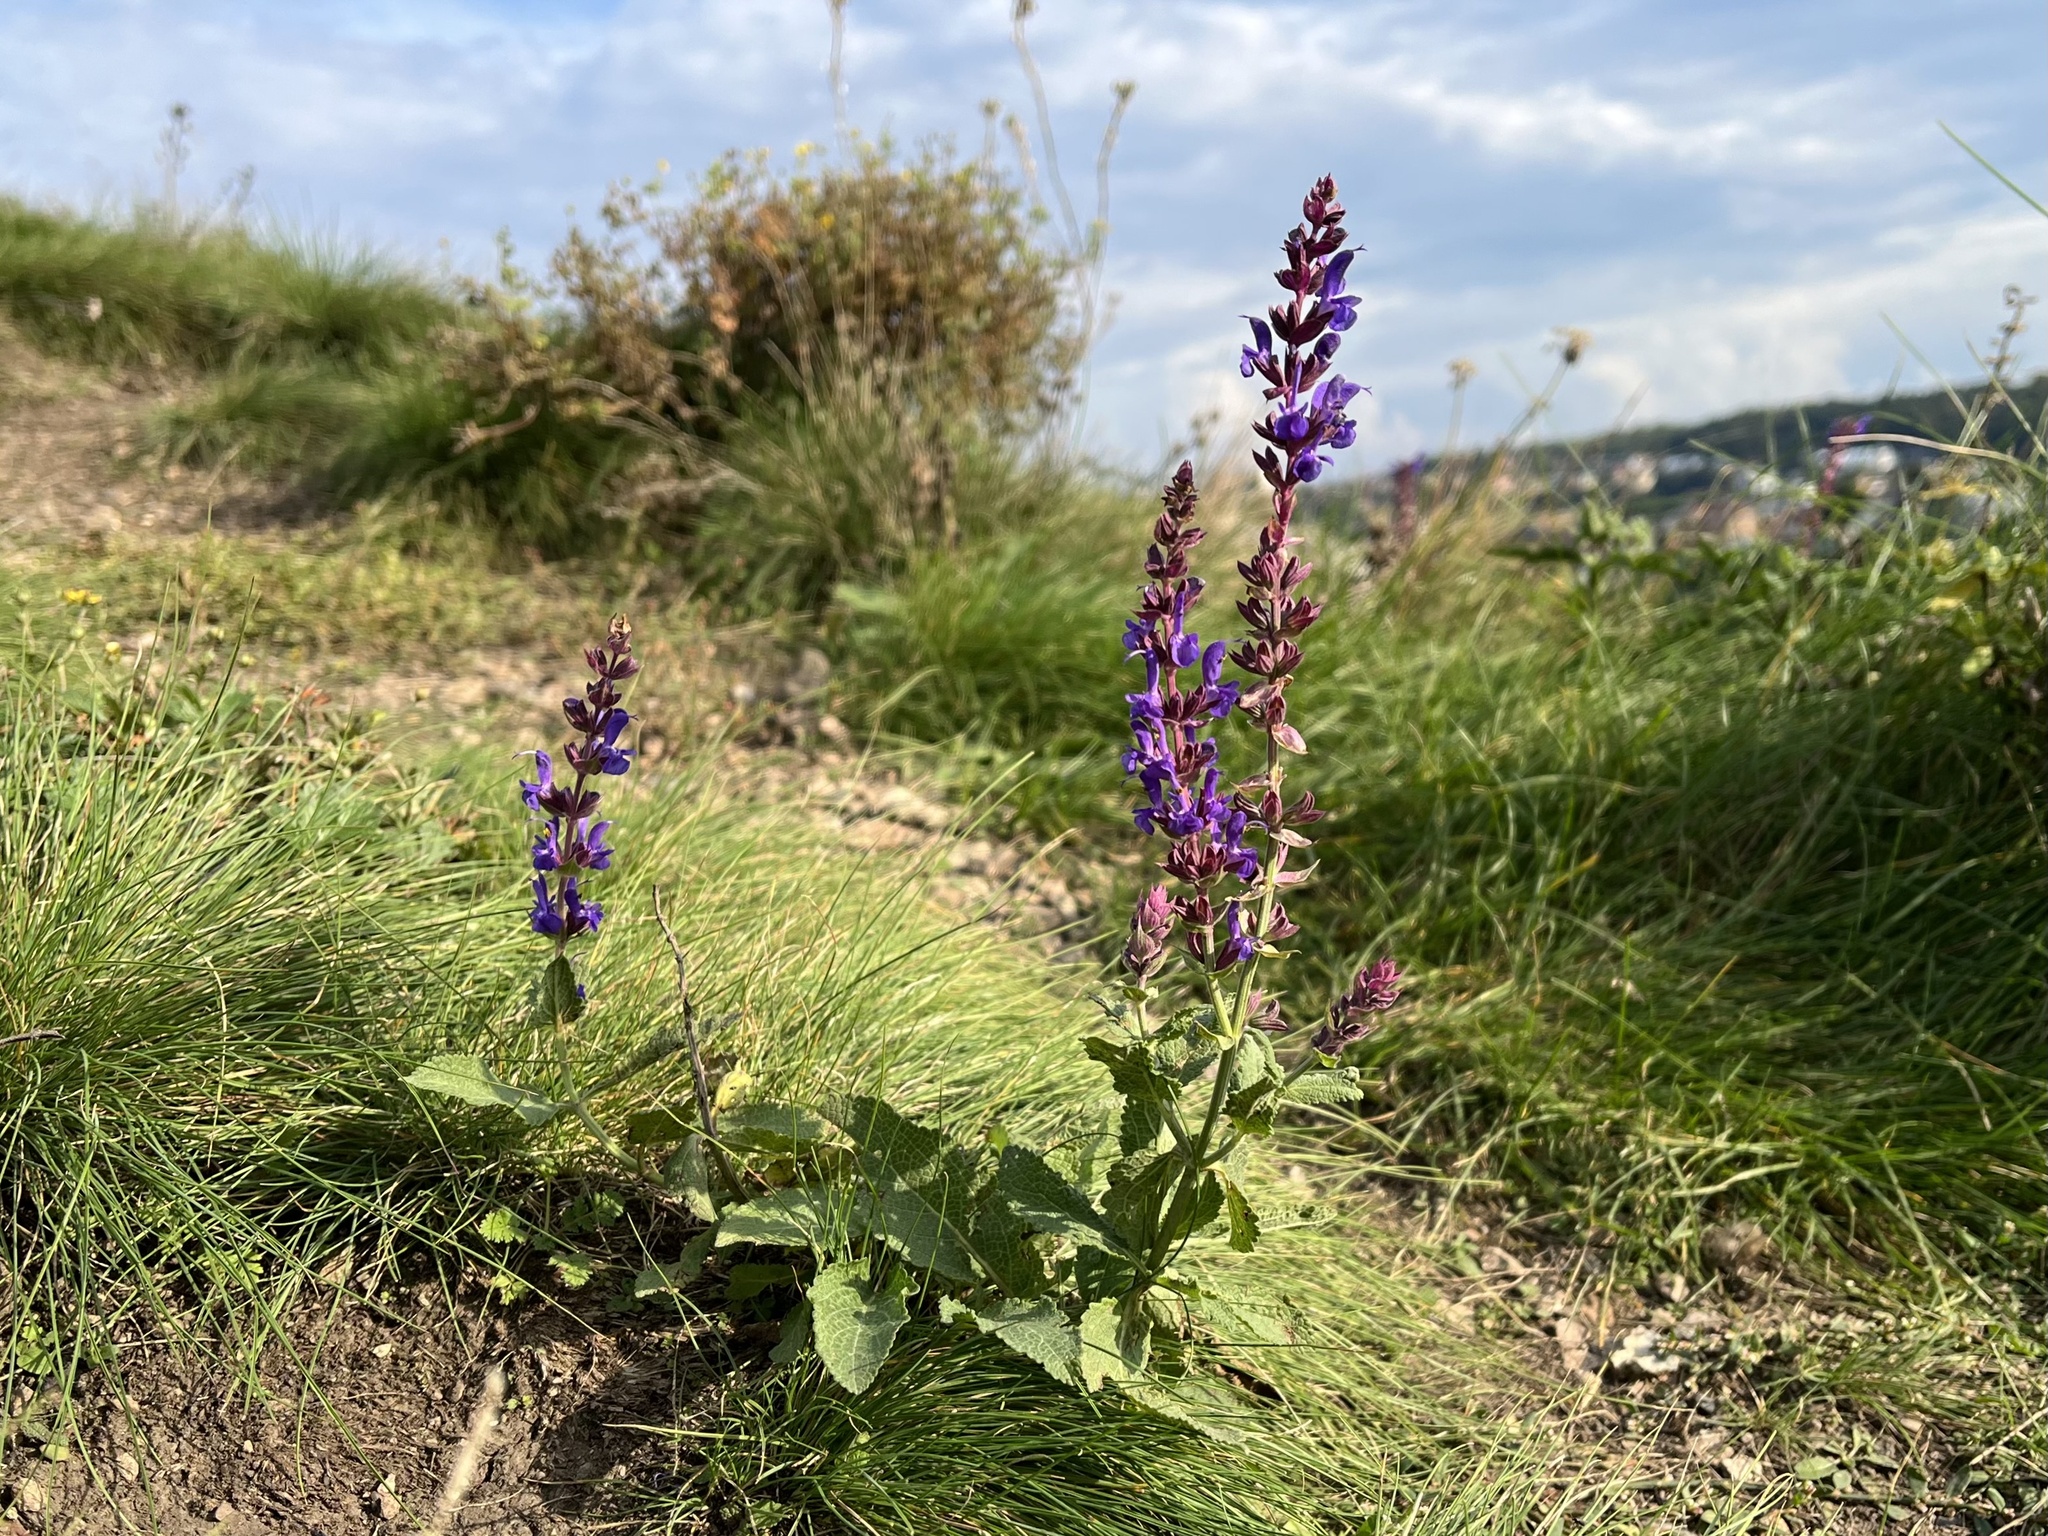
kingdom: Plantae
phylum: Tracheophyta
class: Magnoliopsida
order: Lamiales
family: Lamiaceae
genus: Salvia
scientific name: Salvia nemorosa
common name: Balkan clary
